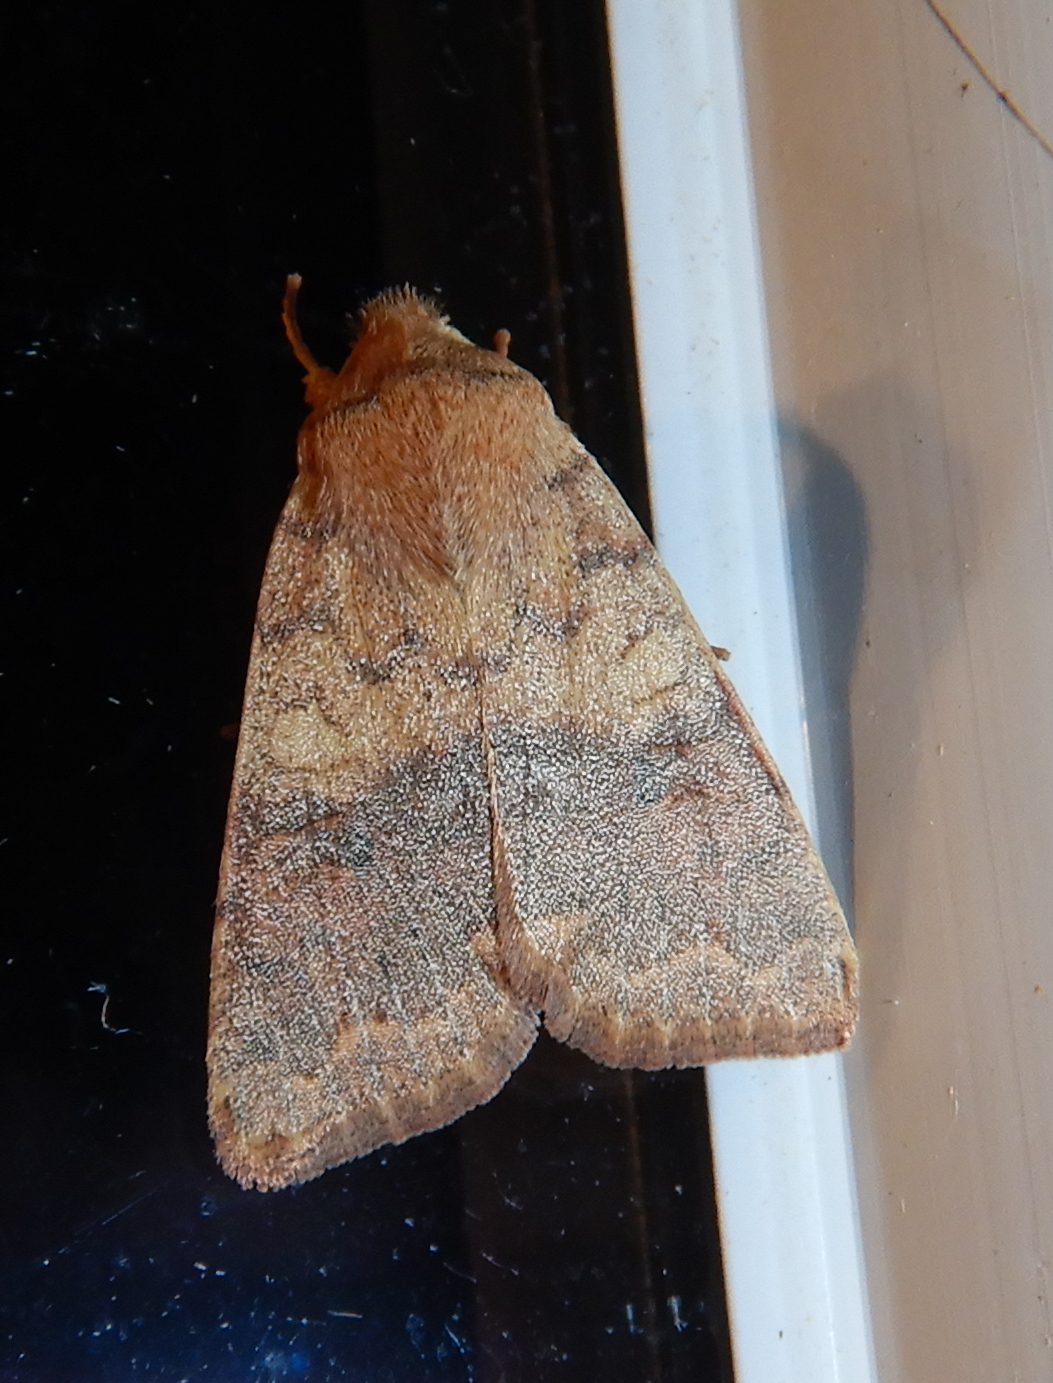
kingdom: Animalia
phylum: Arthropoda
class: Insecta
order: Lepidoptera
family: Noctuidae
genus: Agrochola
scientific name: Agrochola bicolorago
